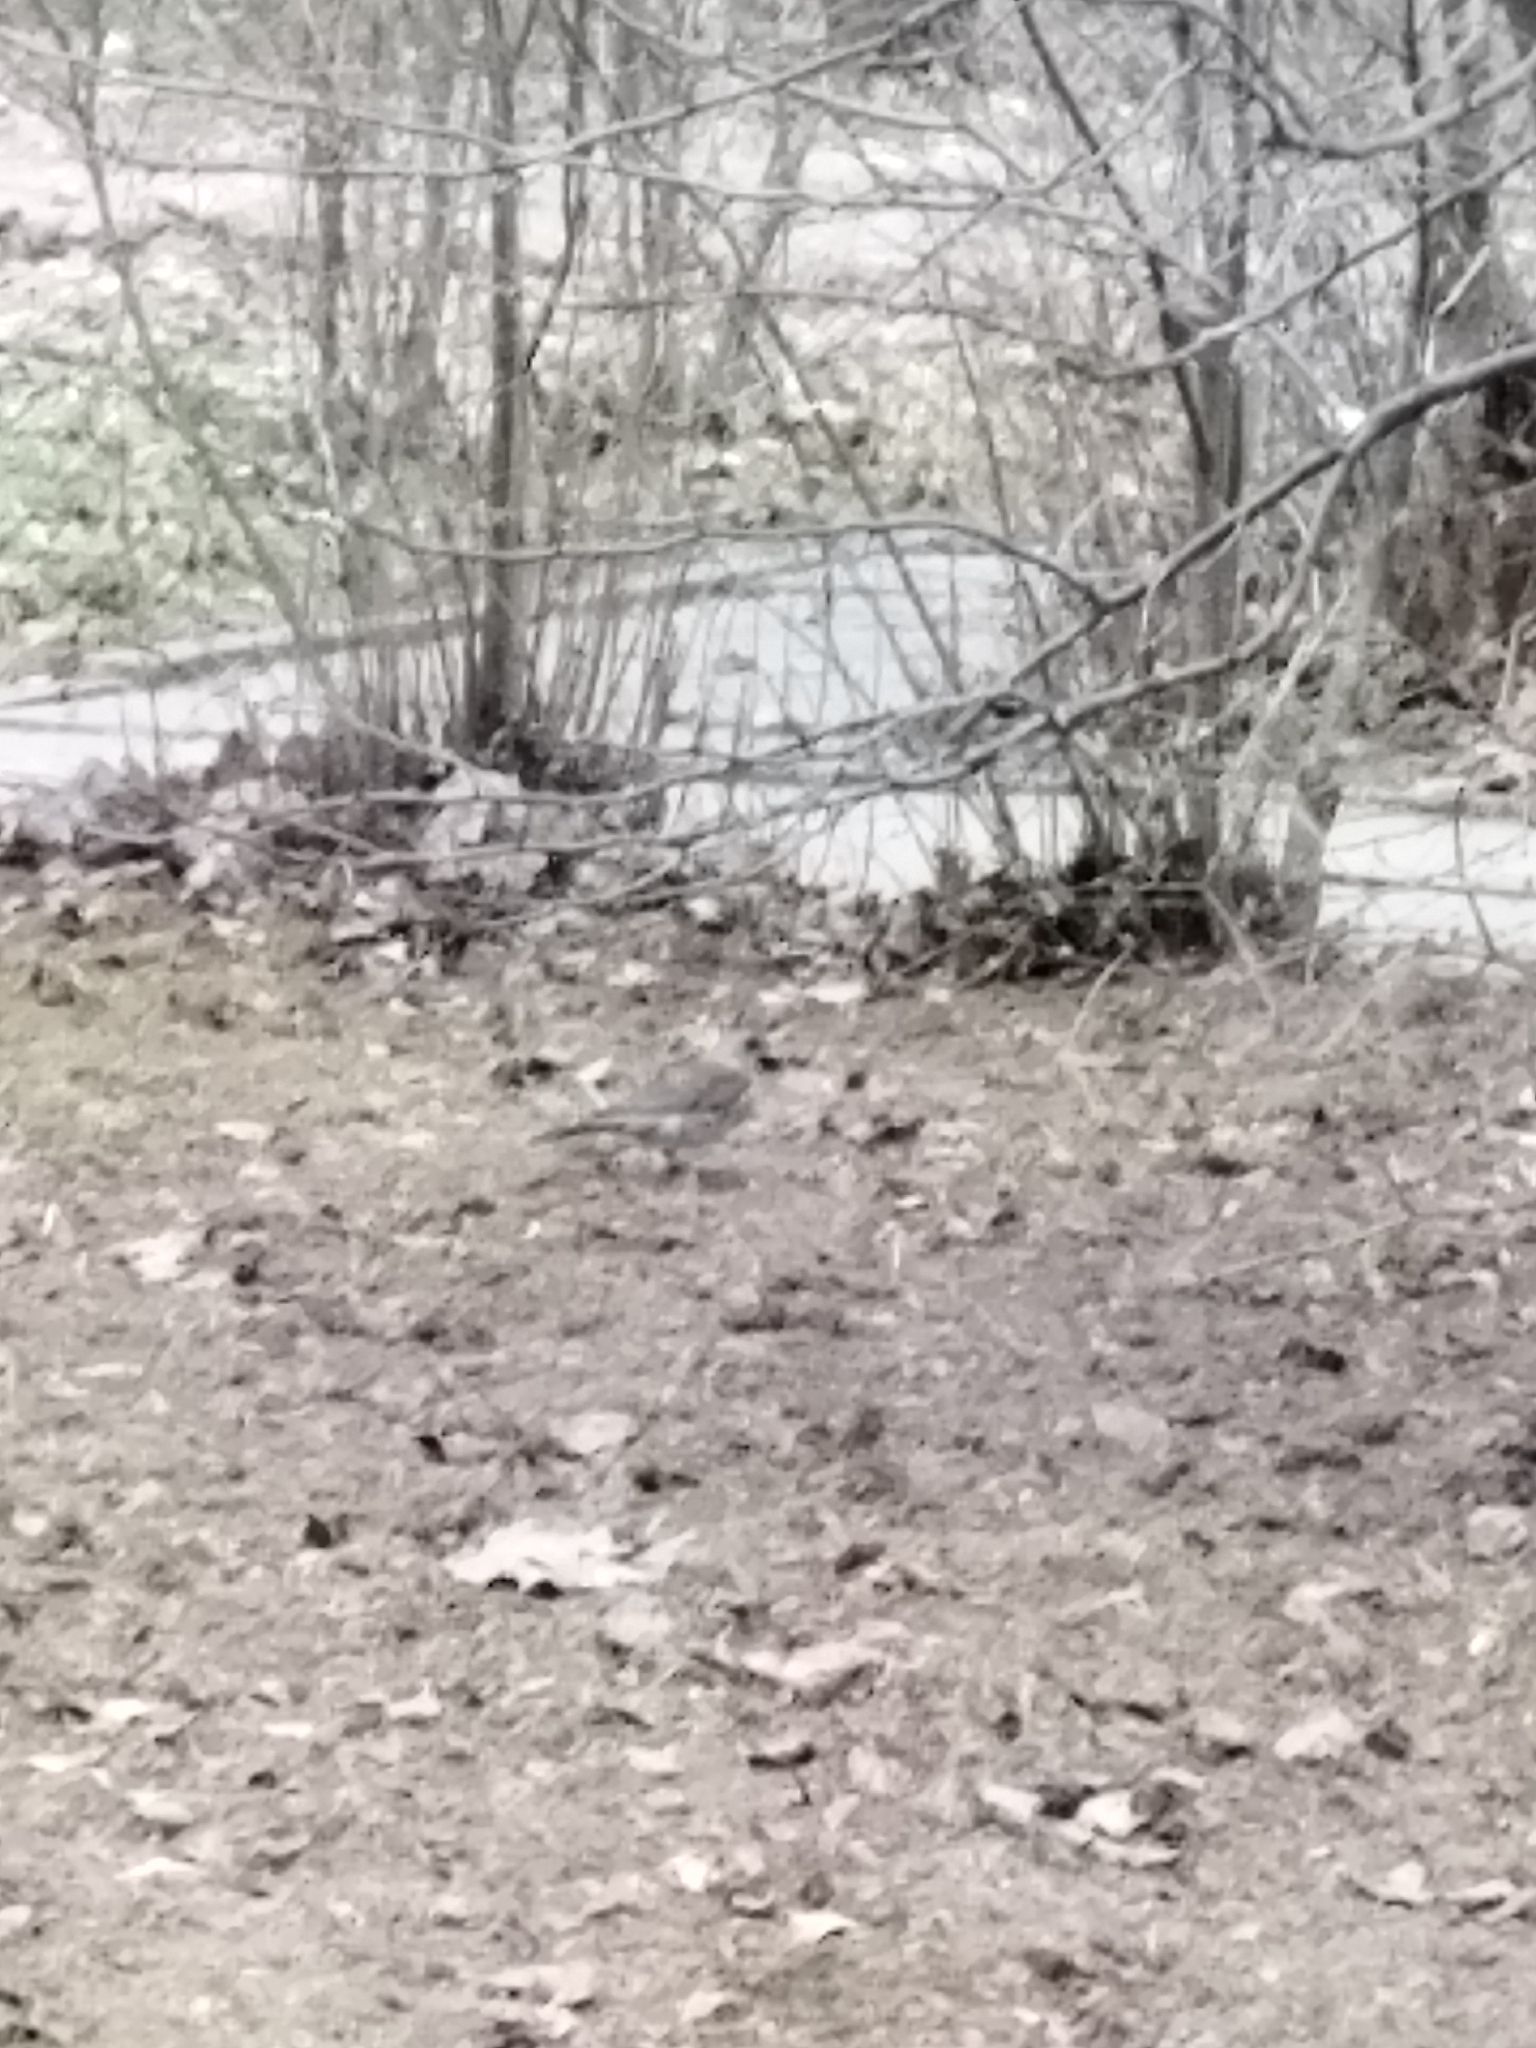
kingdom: Animalia
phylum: Chordata
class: Aves
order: Passeriformes
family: Turdidae
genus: Turdus
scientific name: Turdus pilaris
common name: Fieldfare
